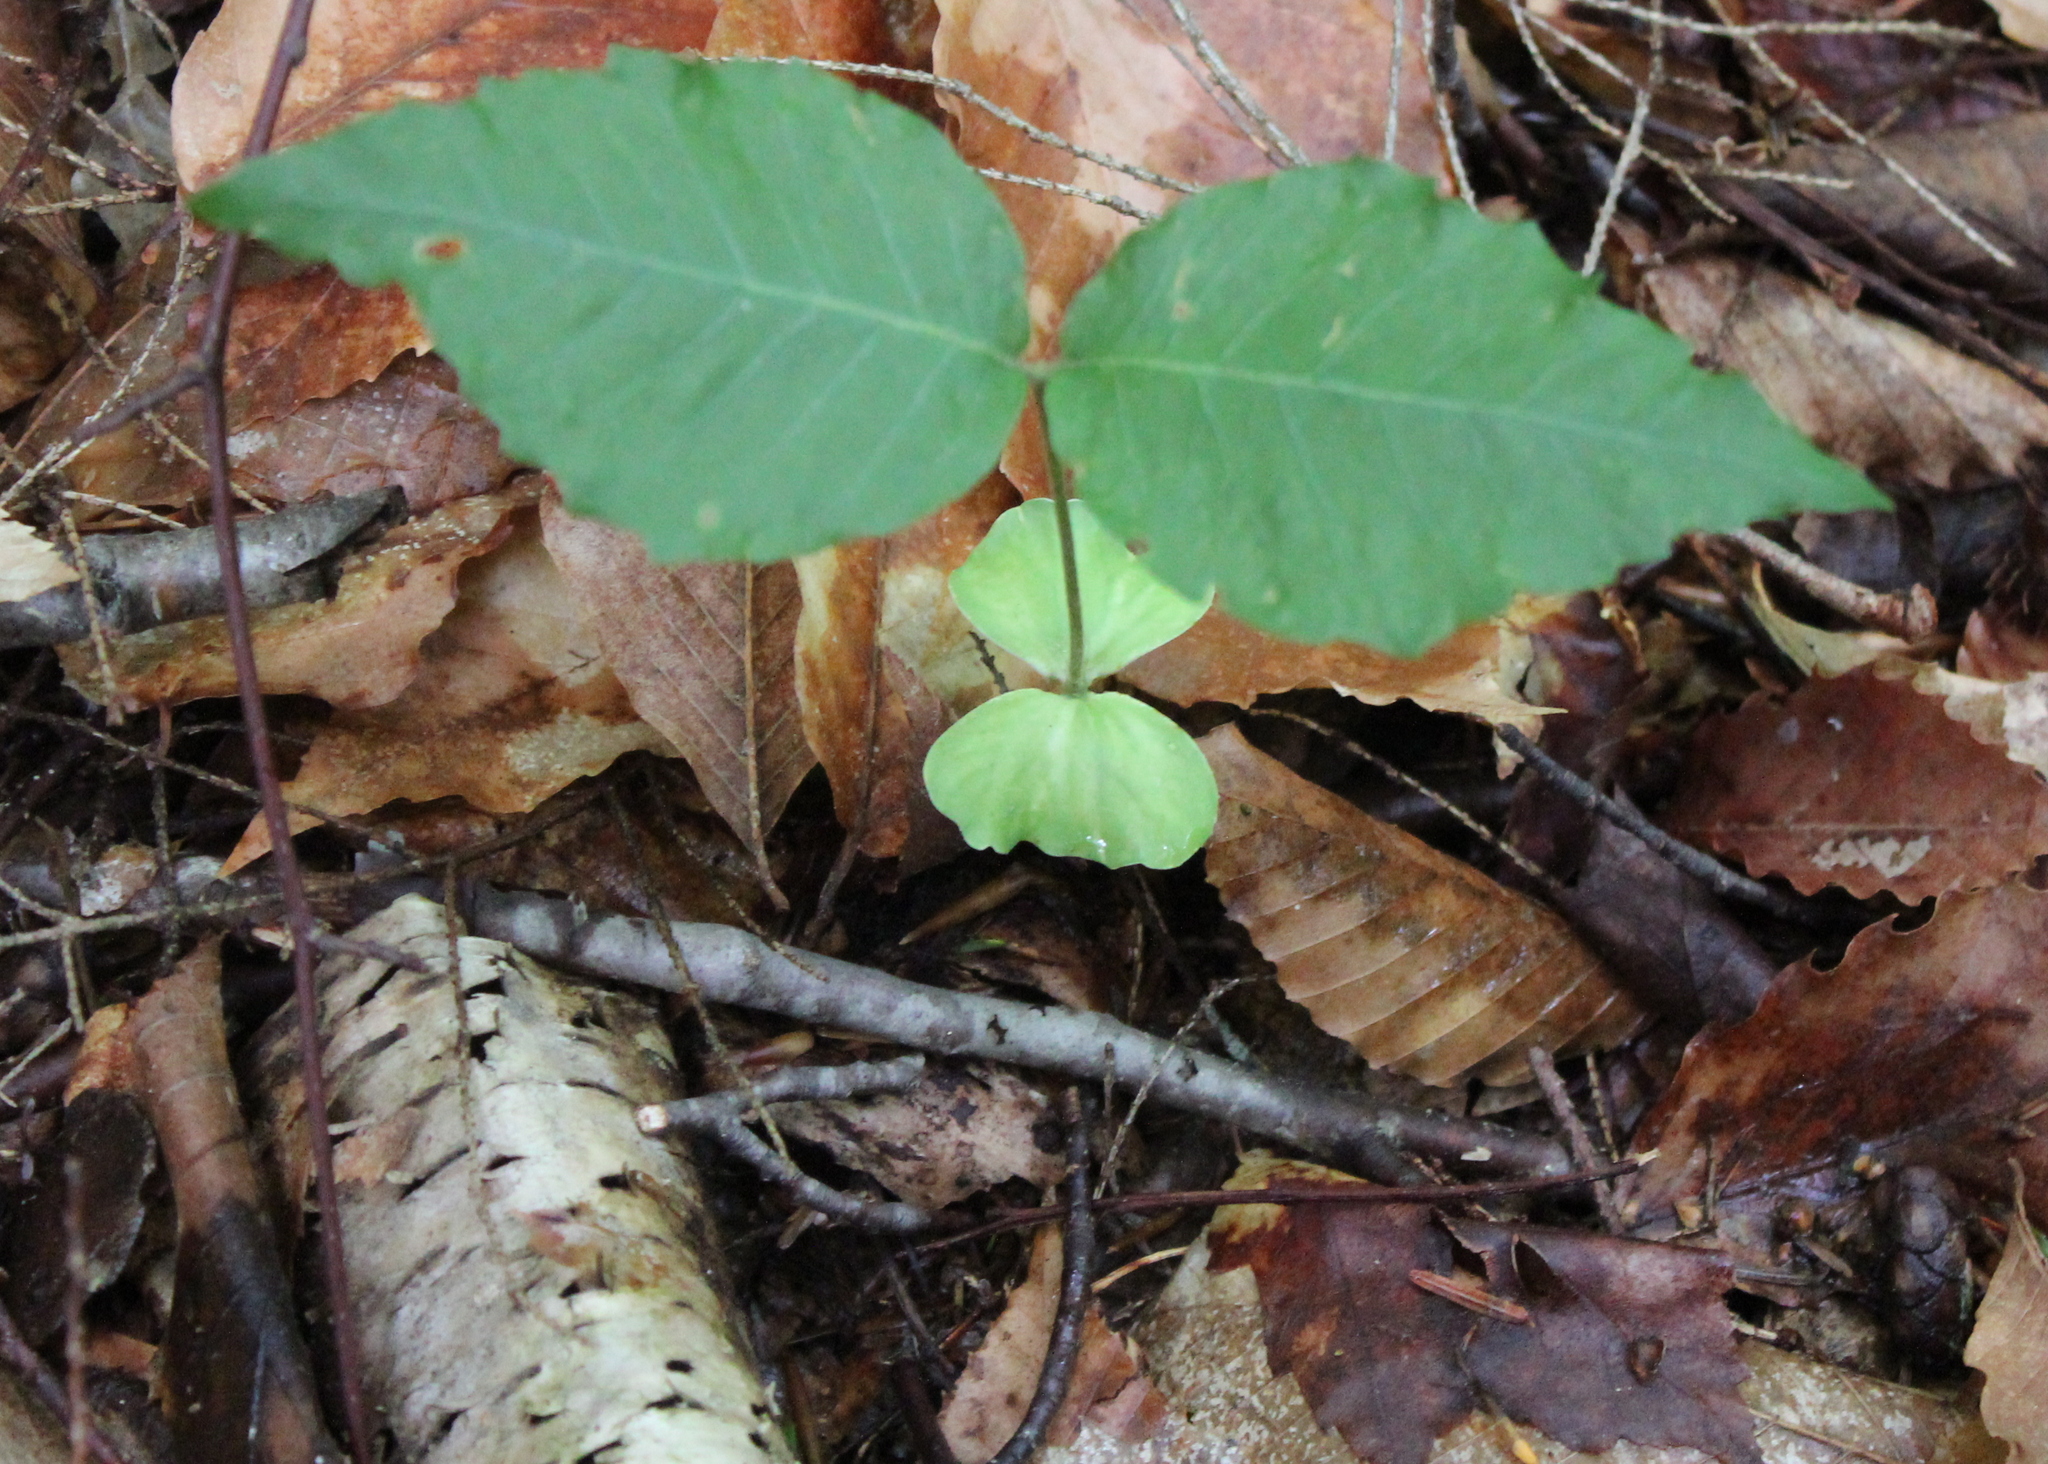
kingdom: Plantae
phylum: Tracheophyta
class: Magnoliopsida
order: Fagales
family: Fagaceae
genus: Fagus
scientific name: Fagus grandifolia
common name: American beech
